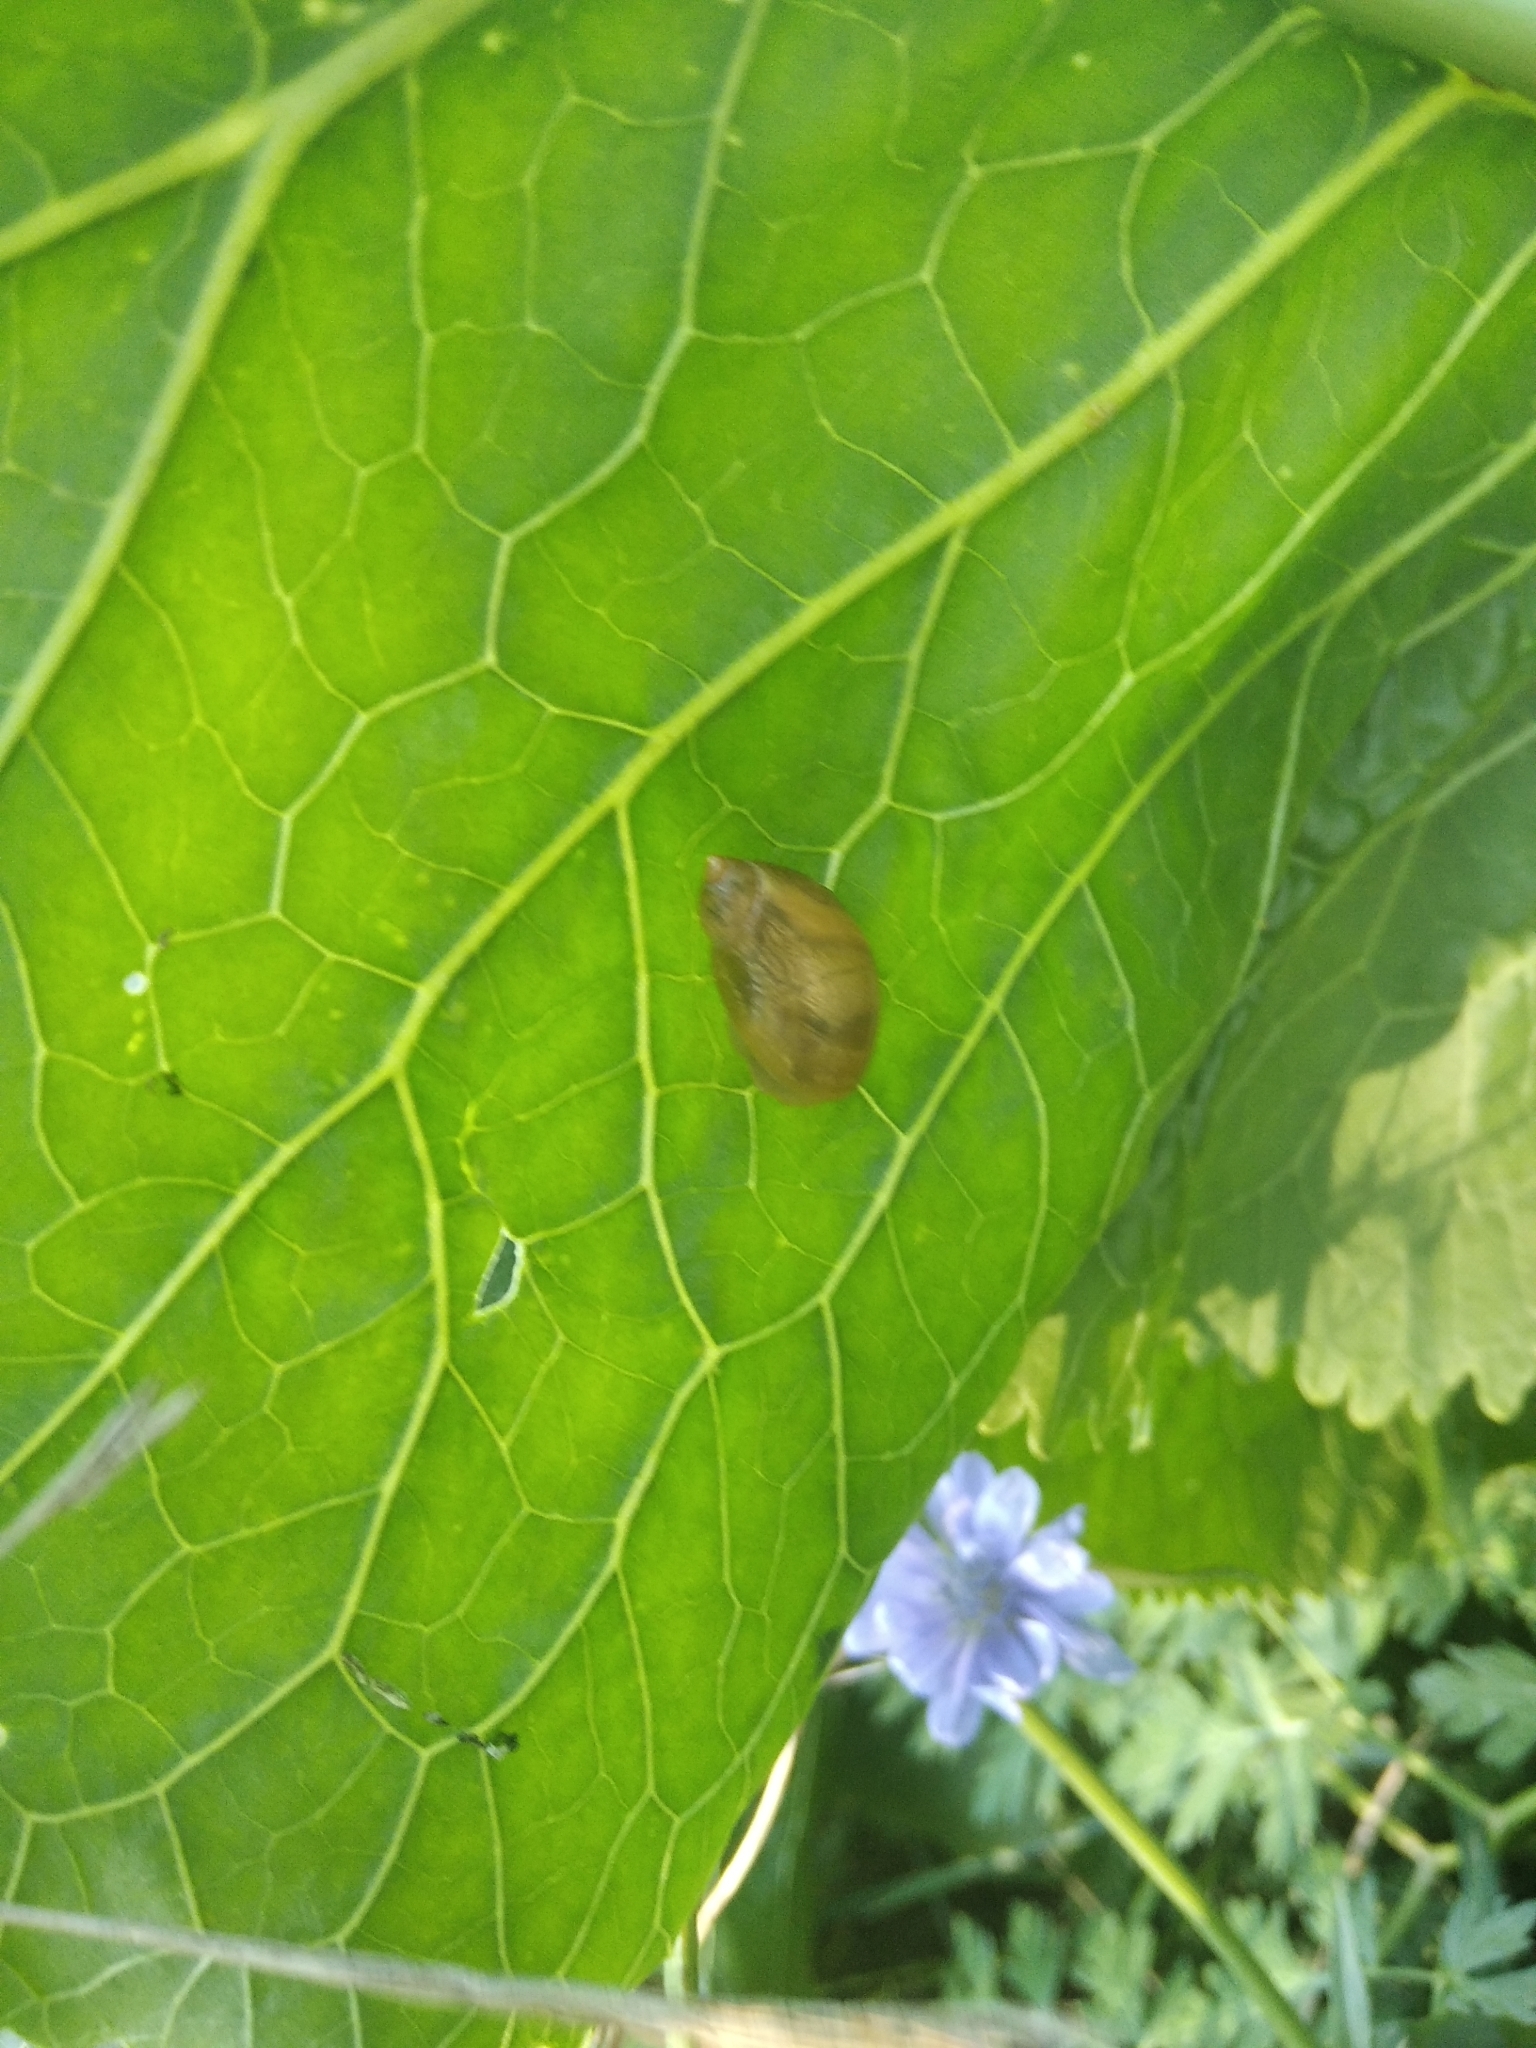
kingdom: Animalia
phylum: Mollusca
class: Gastropoda
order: Stylommatophora
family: Succineidae
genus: Succinea
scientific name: Succinea putris
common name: European ambersnail
